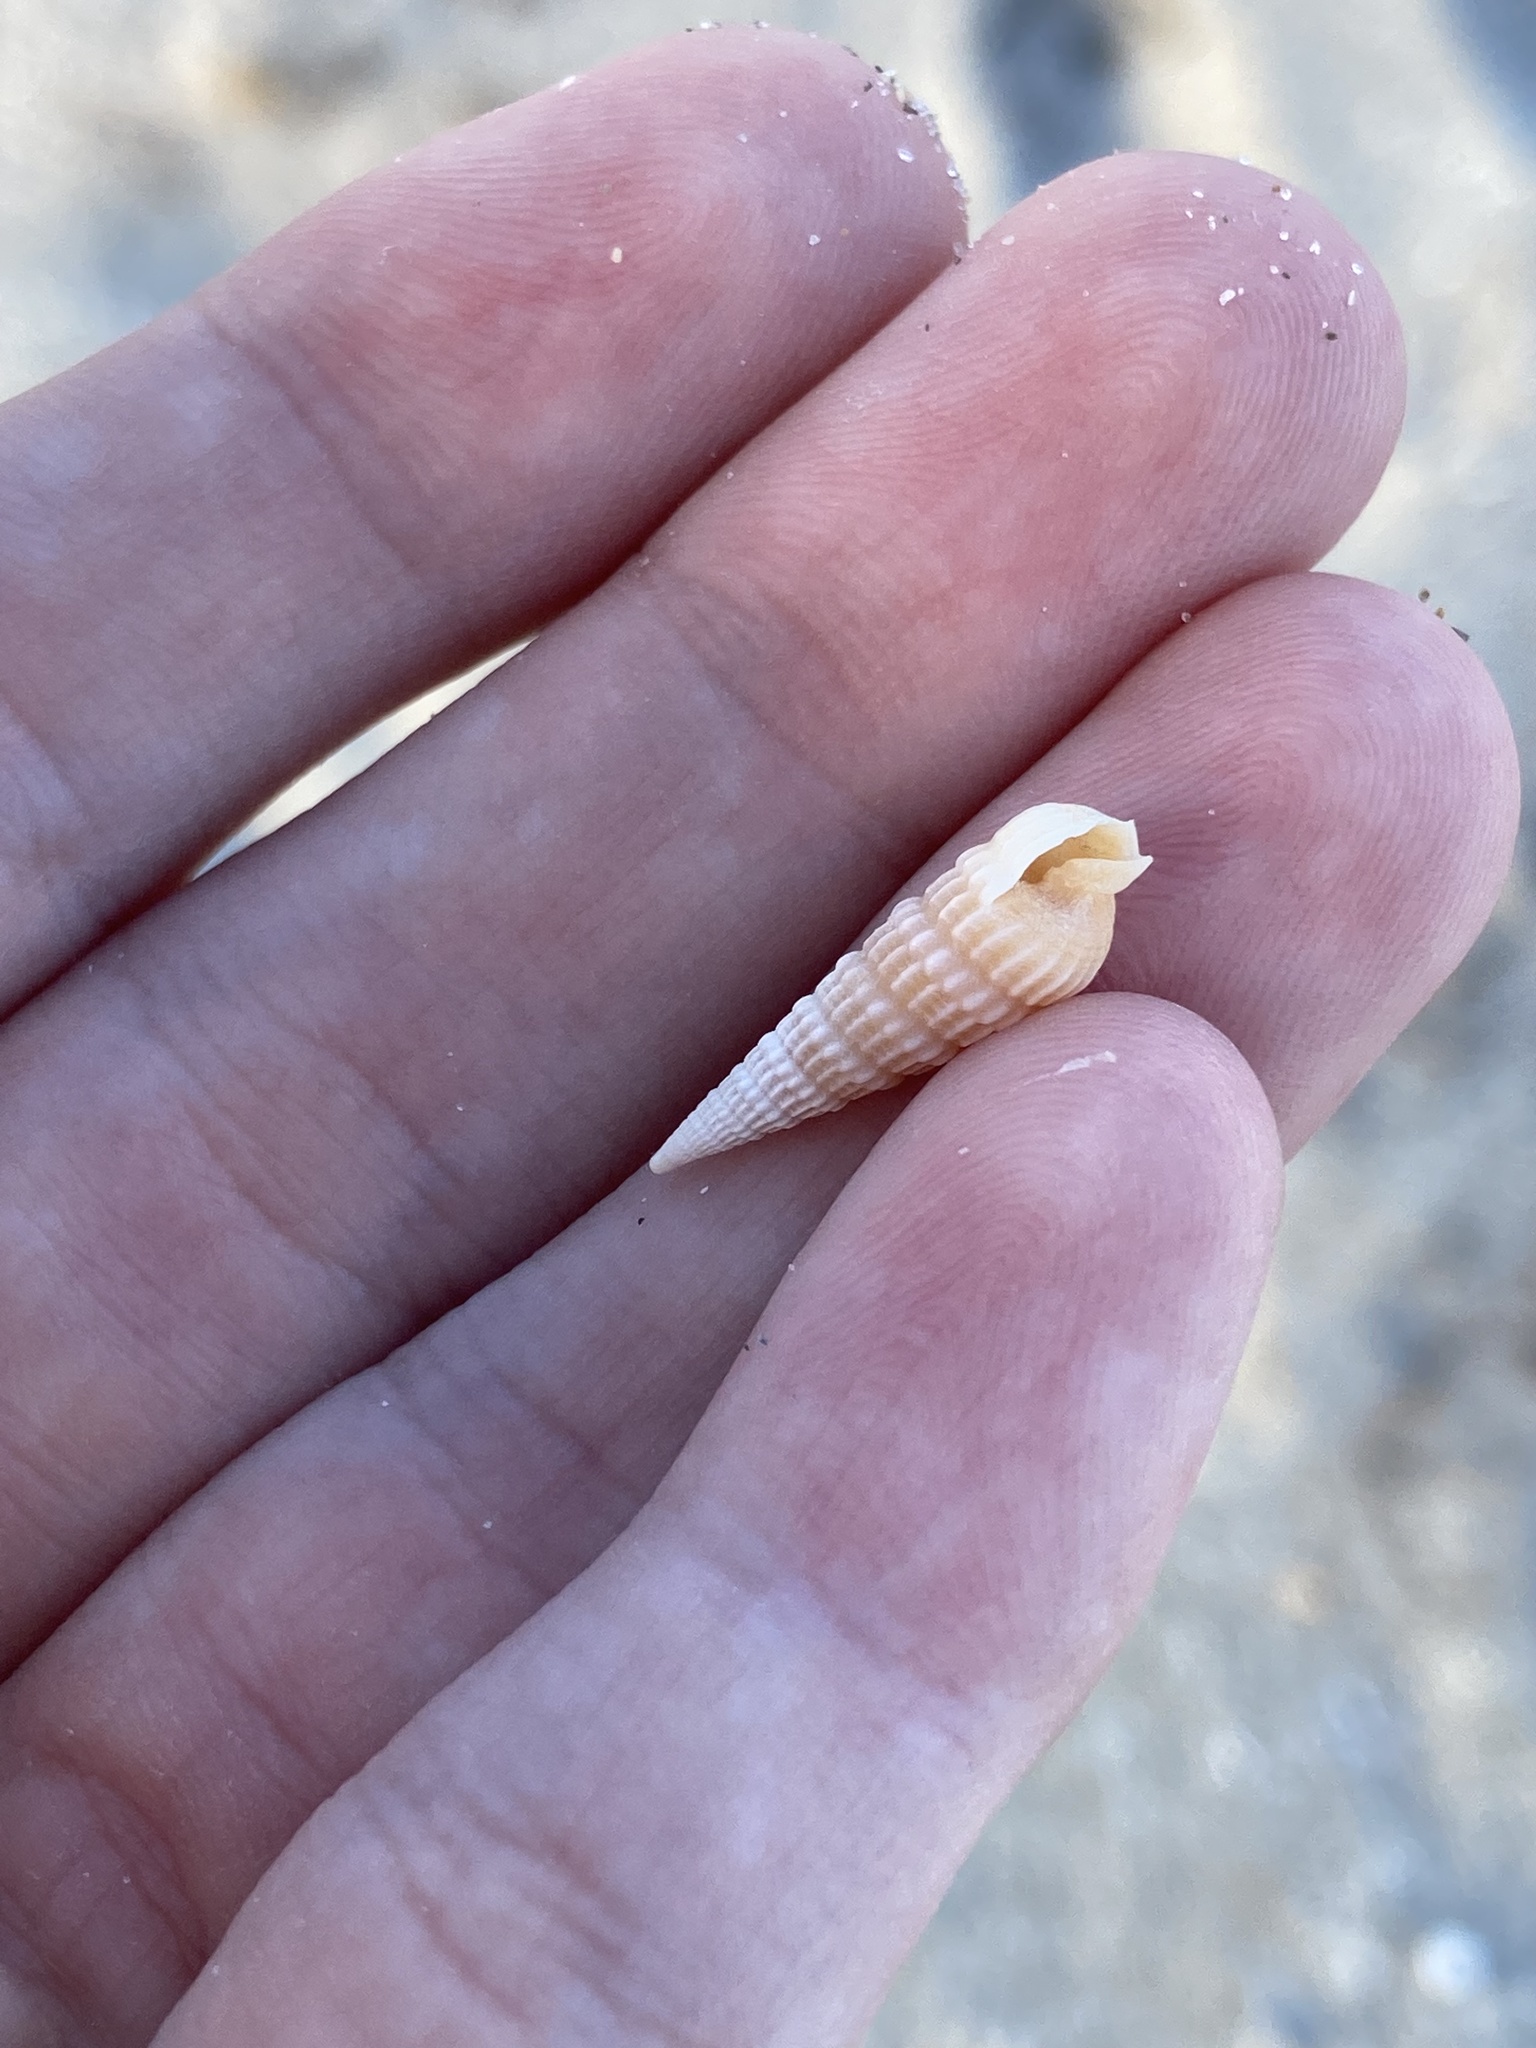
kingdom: Animalia
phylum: Mollusca
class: Gastropoda
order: Neogastropoda
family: Terebridae
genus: Neoterebra
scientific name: Neoterebra dislocata
